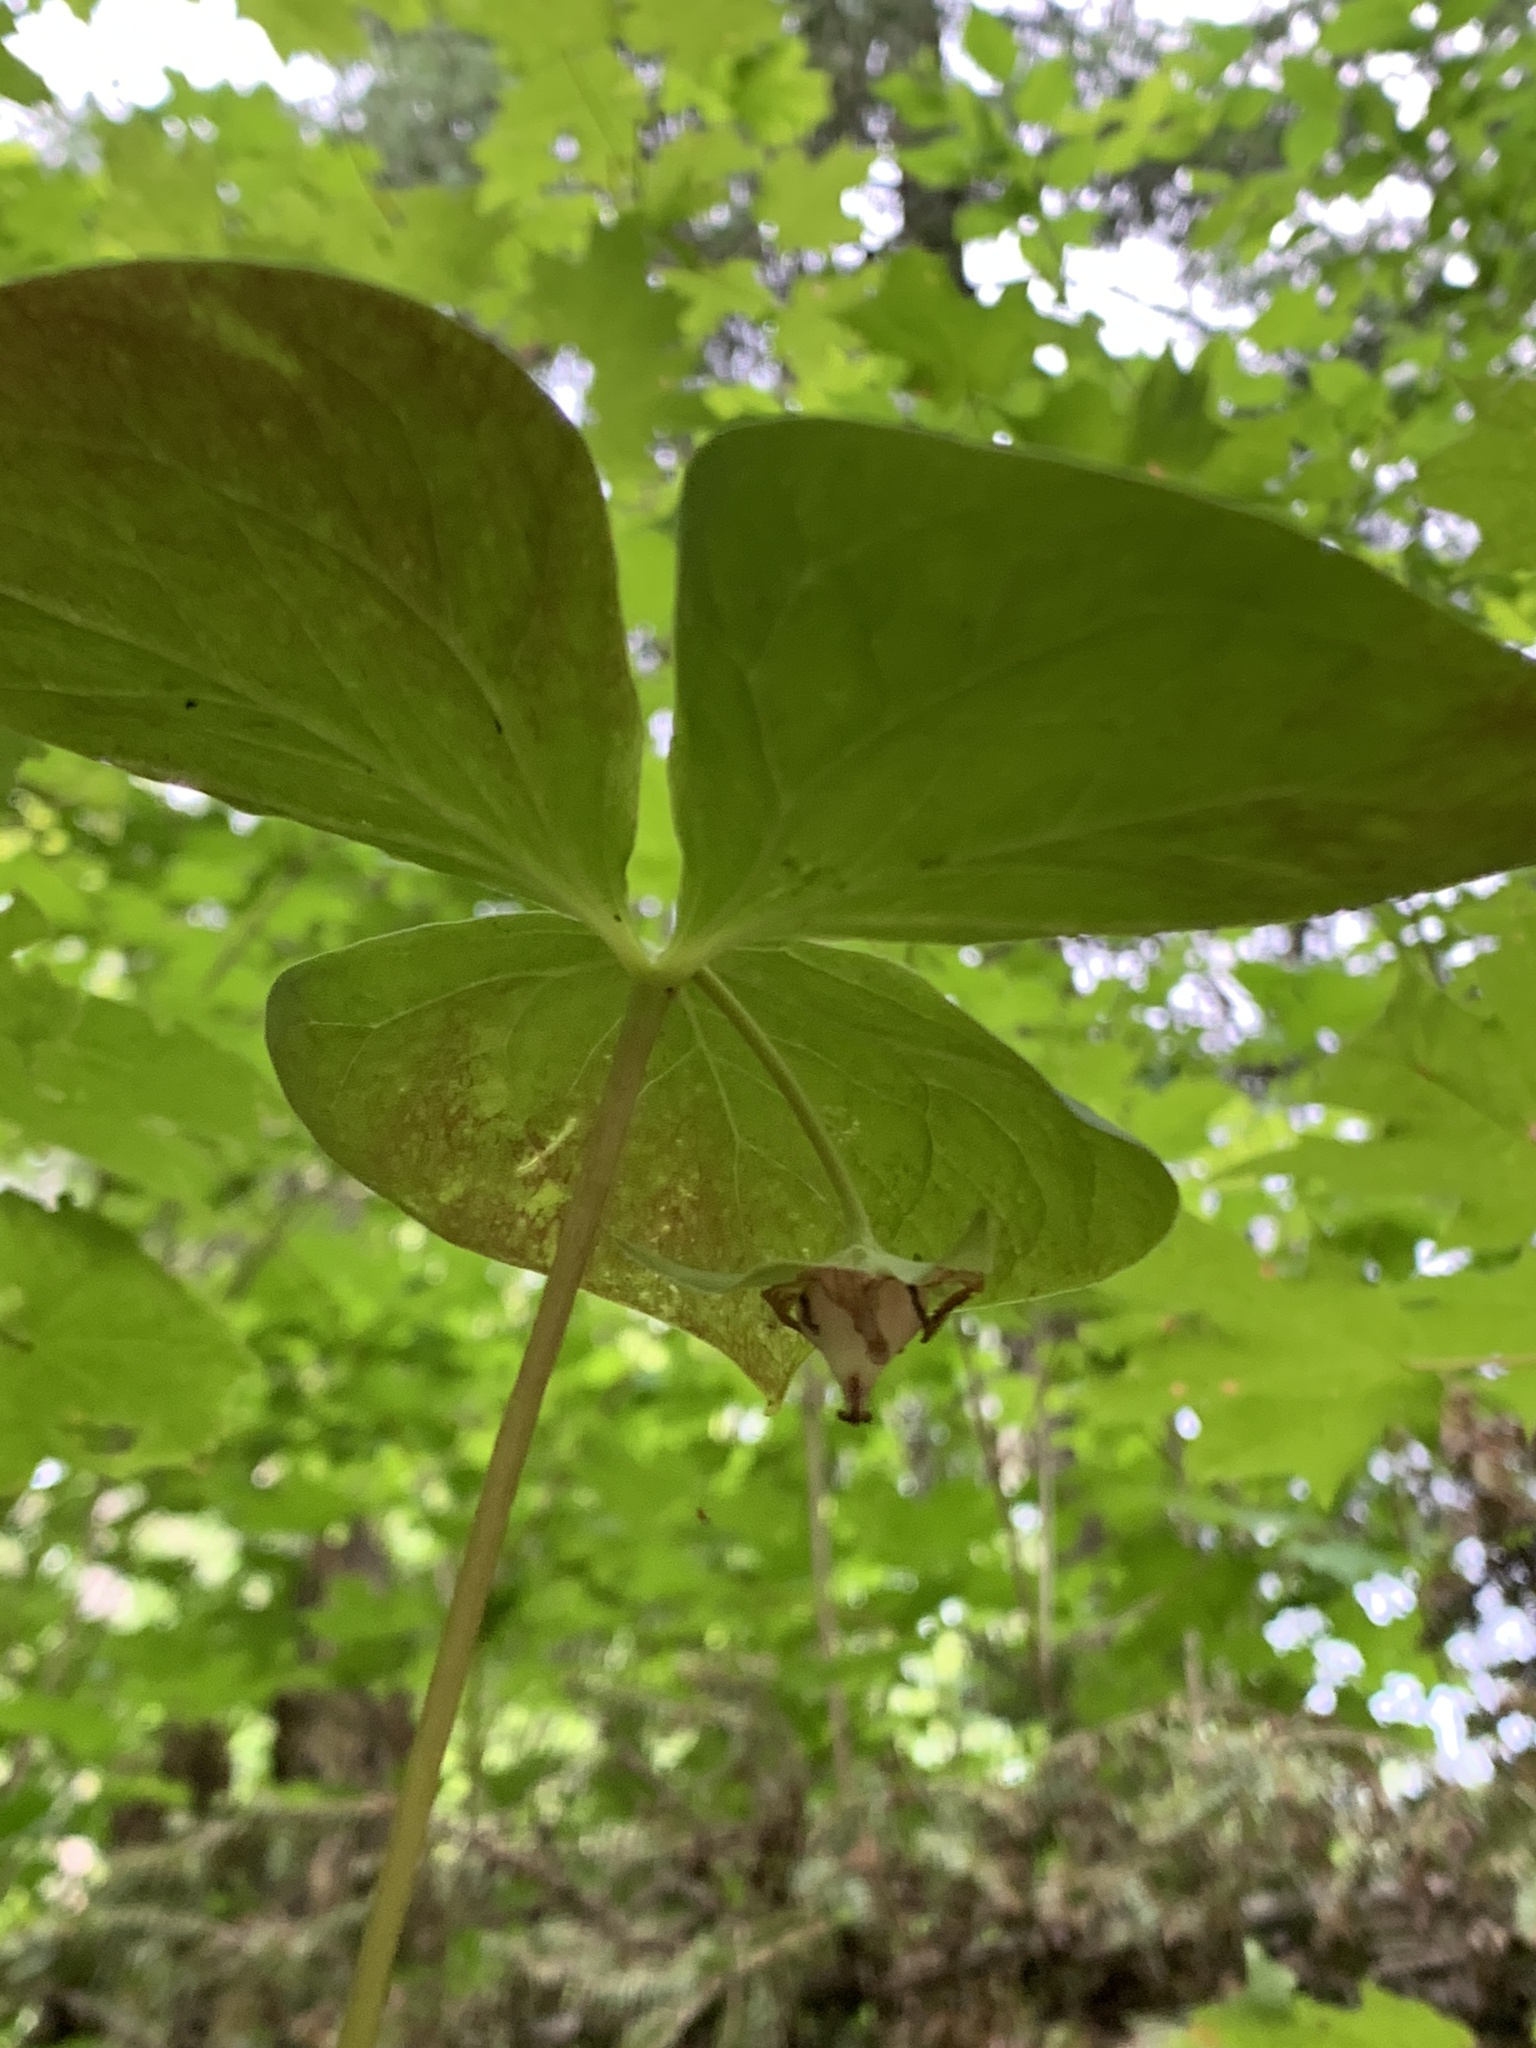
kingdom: Plantae
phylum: Tracheophyta
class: Liliopsida
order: Liliales
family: Melanthiaceae
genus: Trillium
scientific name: Trillium cernuum
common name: Nodding trillium
